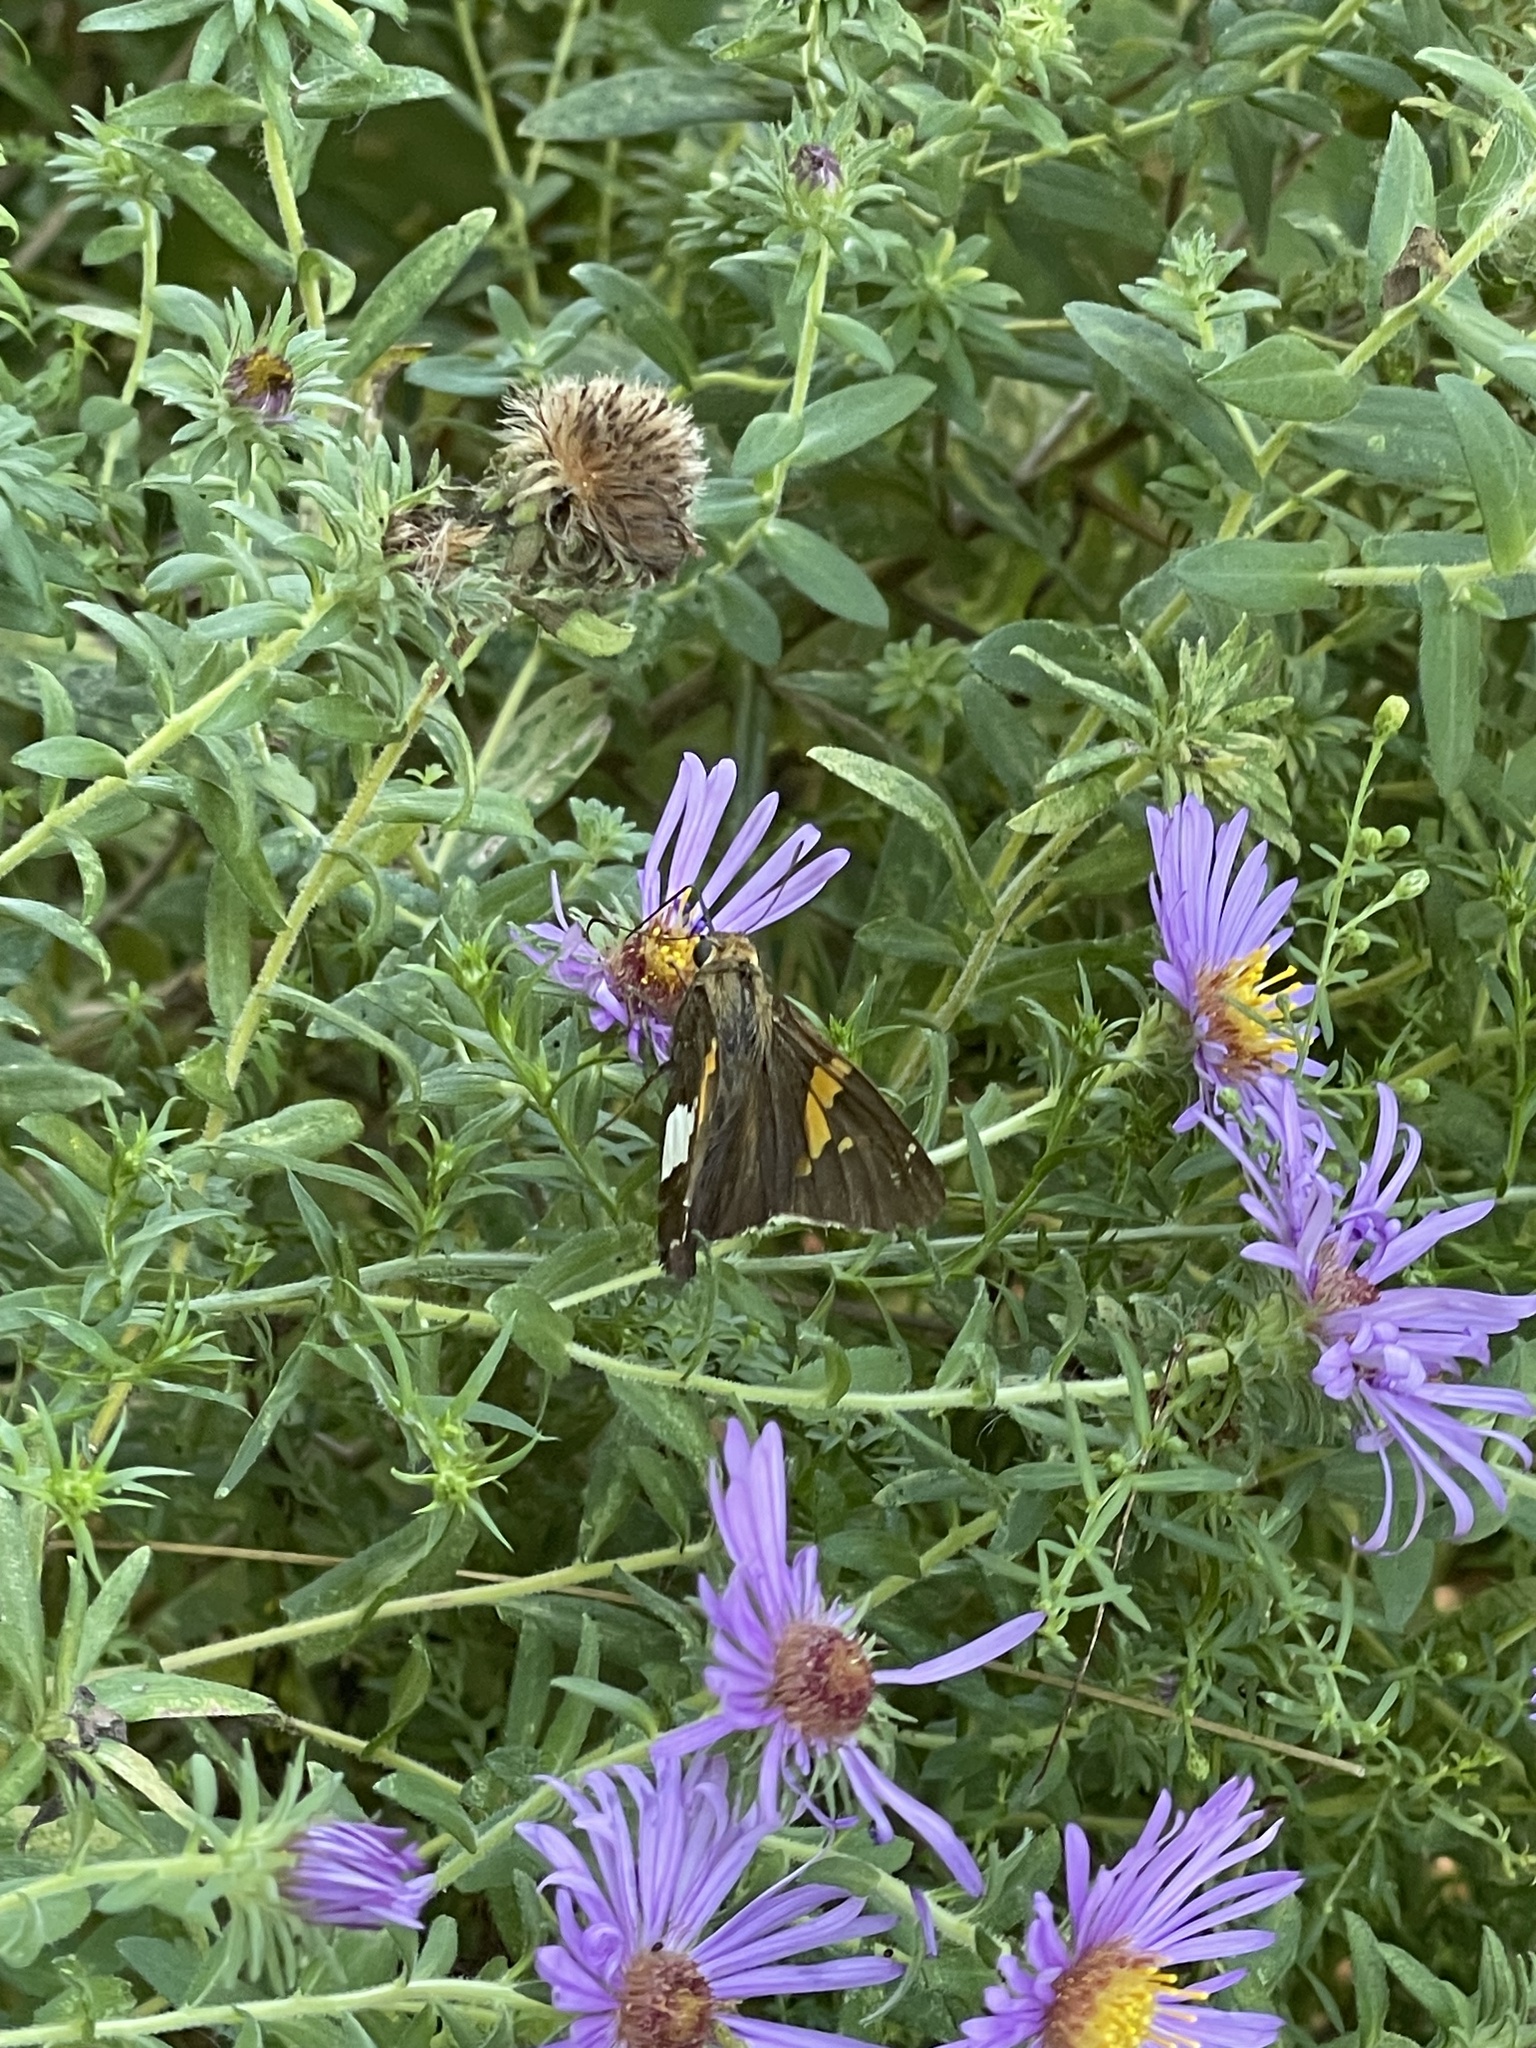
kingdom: Animalia
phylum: Arthropoda
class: Insecta
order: Lepidoptera
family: Hesperiidae
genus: Epargyreus
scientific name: Epargyreus clarus
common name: Silver-spotted skipper
